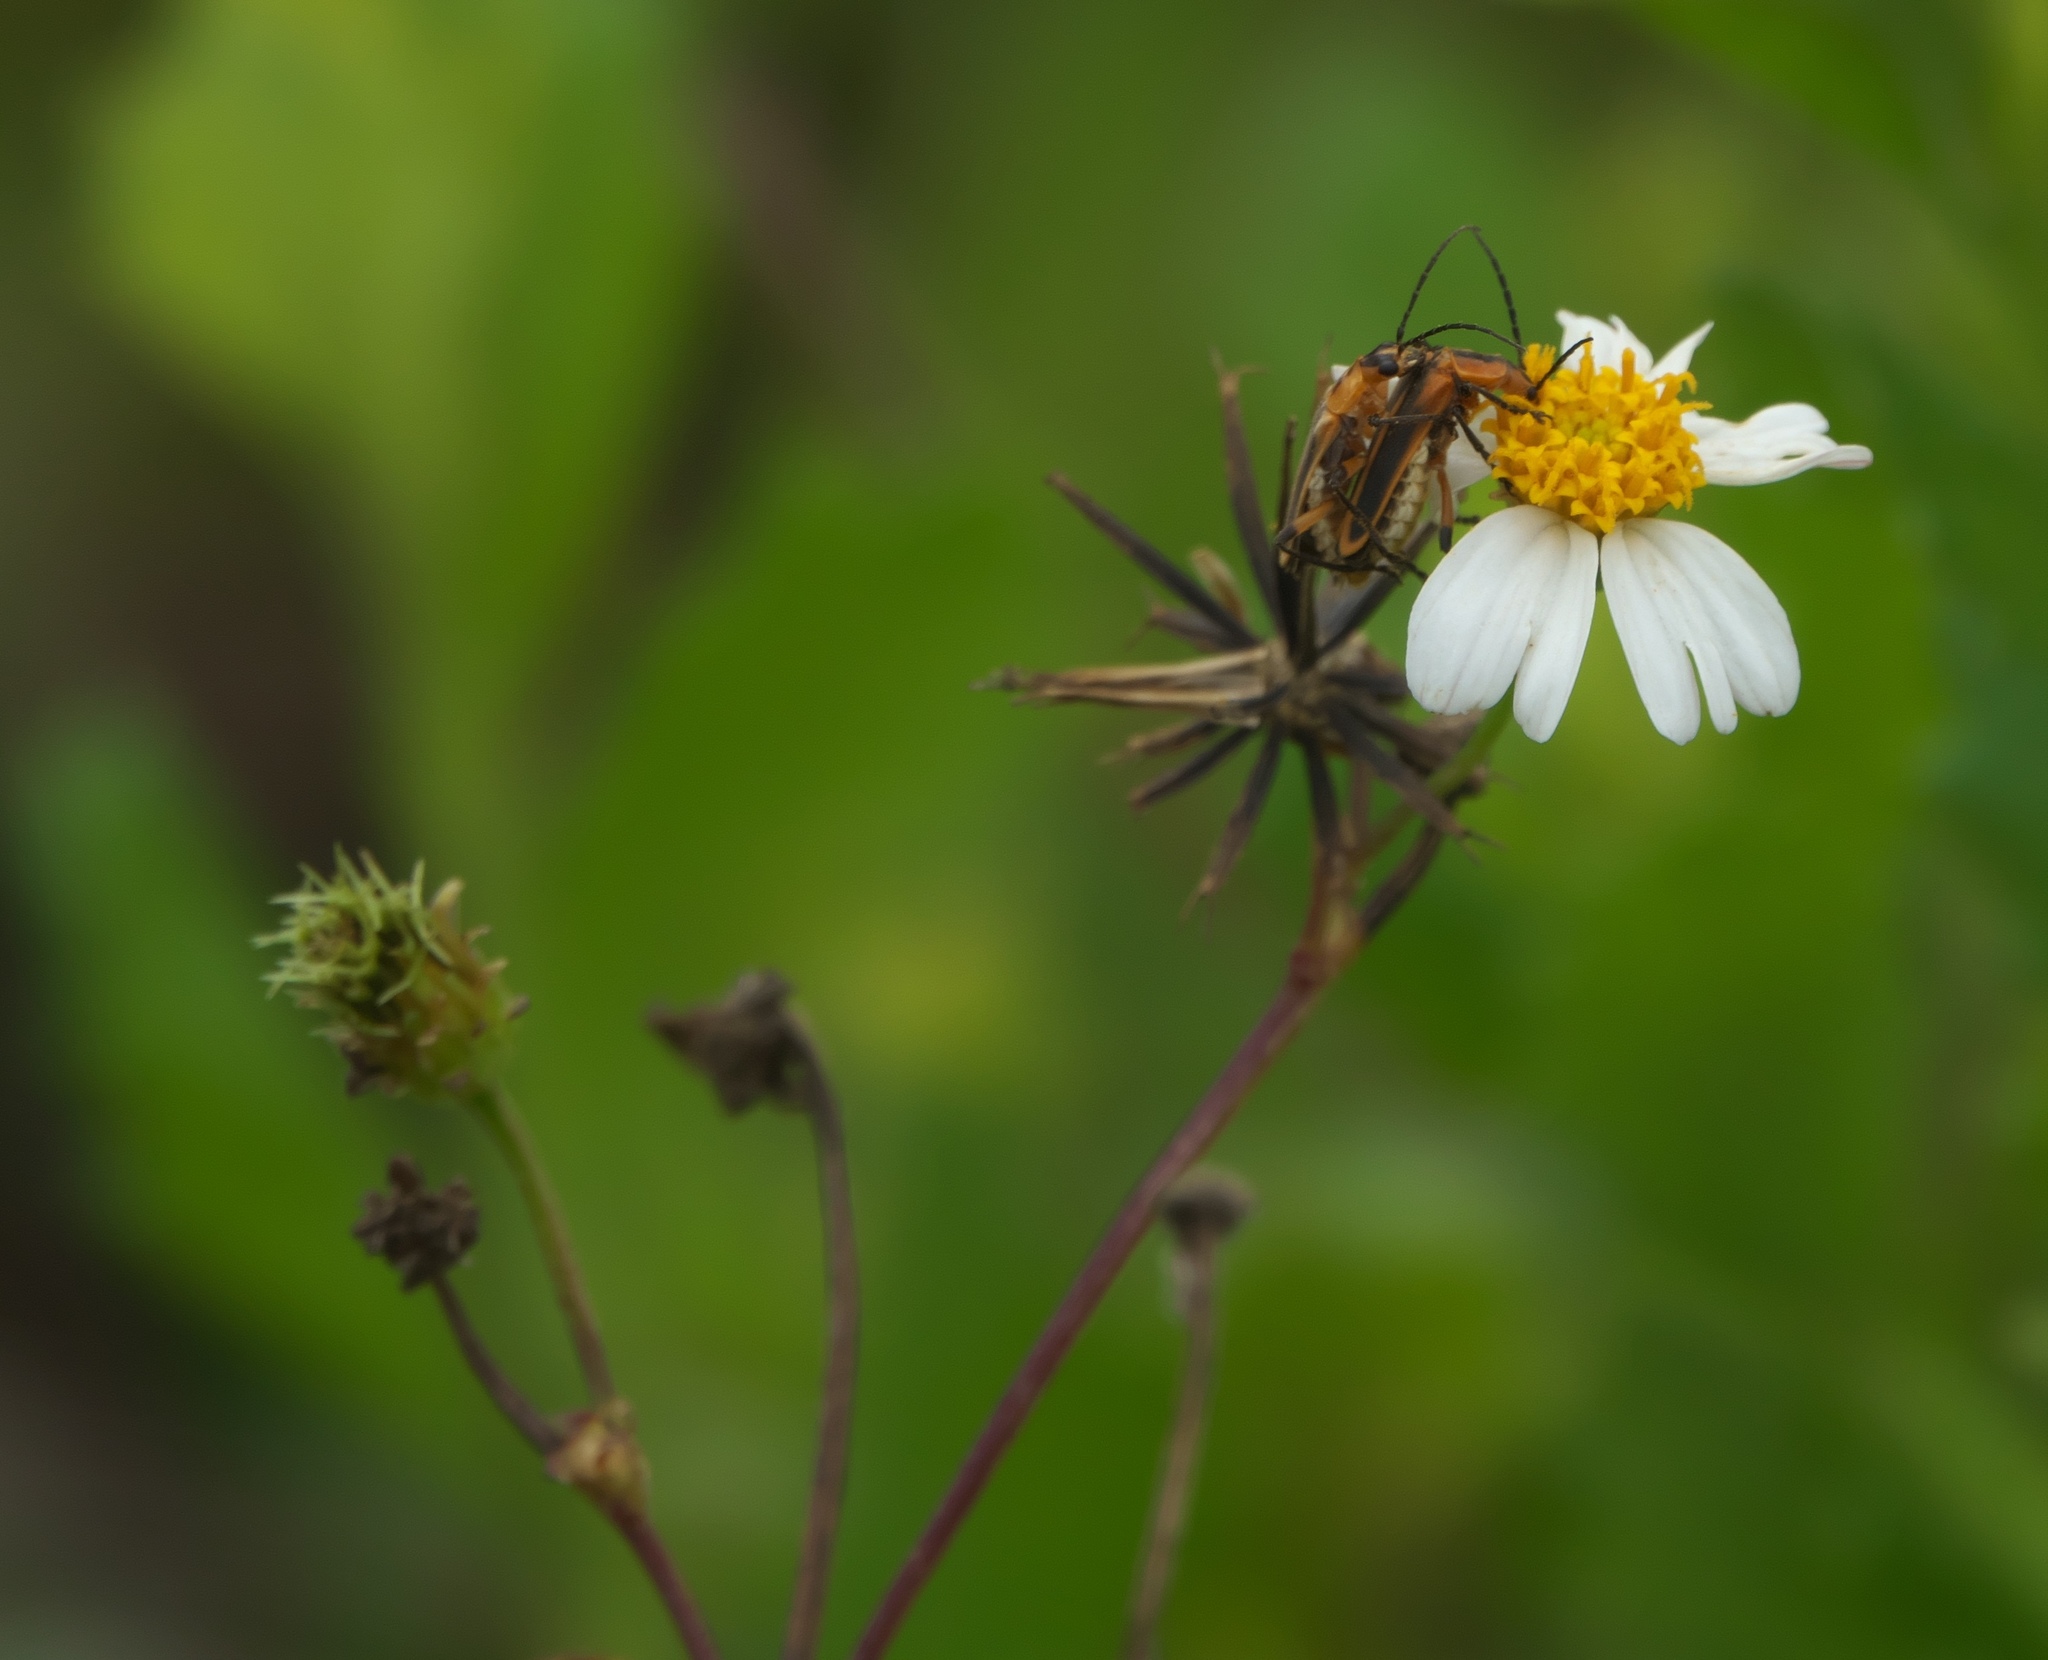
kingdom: Plantae
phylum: Tracheophyta
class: Magnoliopsida
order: Asterales
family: Asteraceae
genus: Bidens
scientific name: Bidens alba
